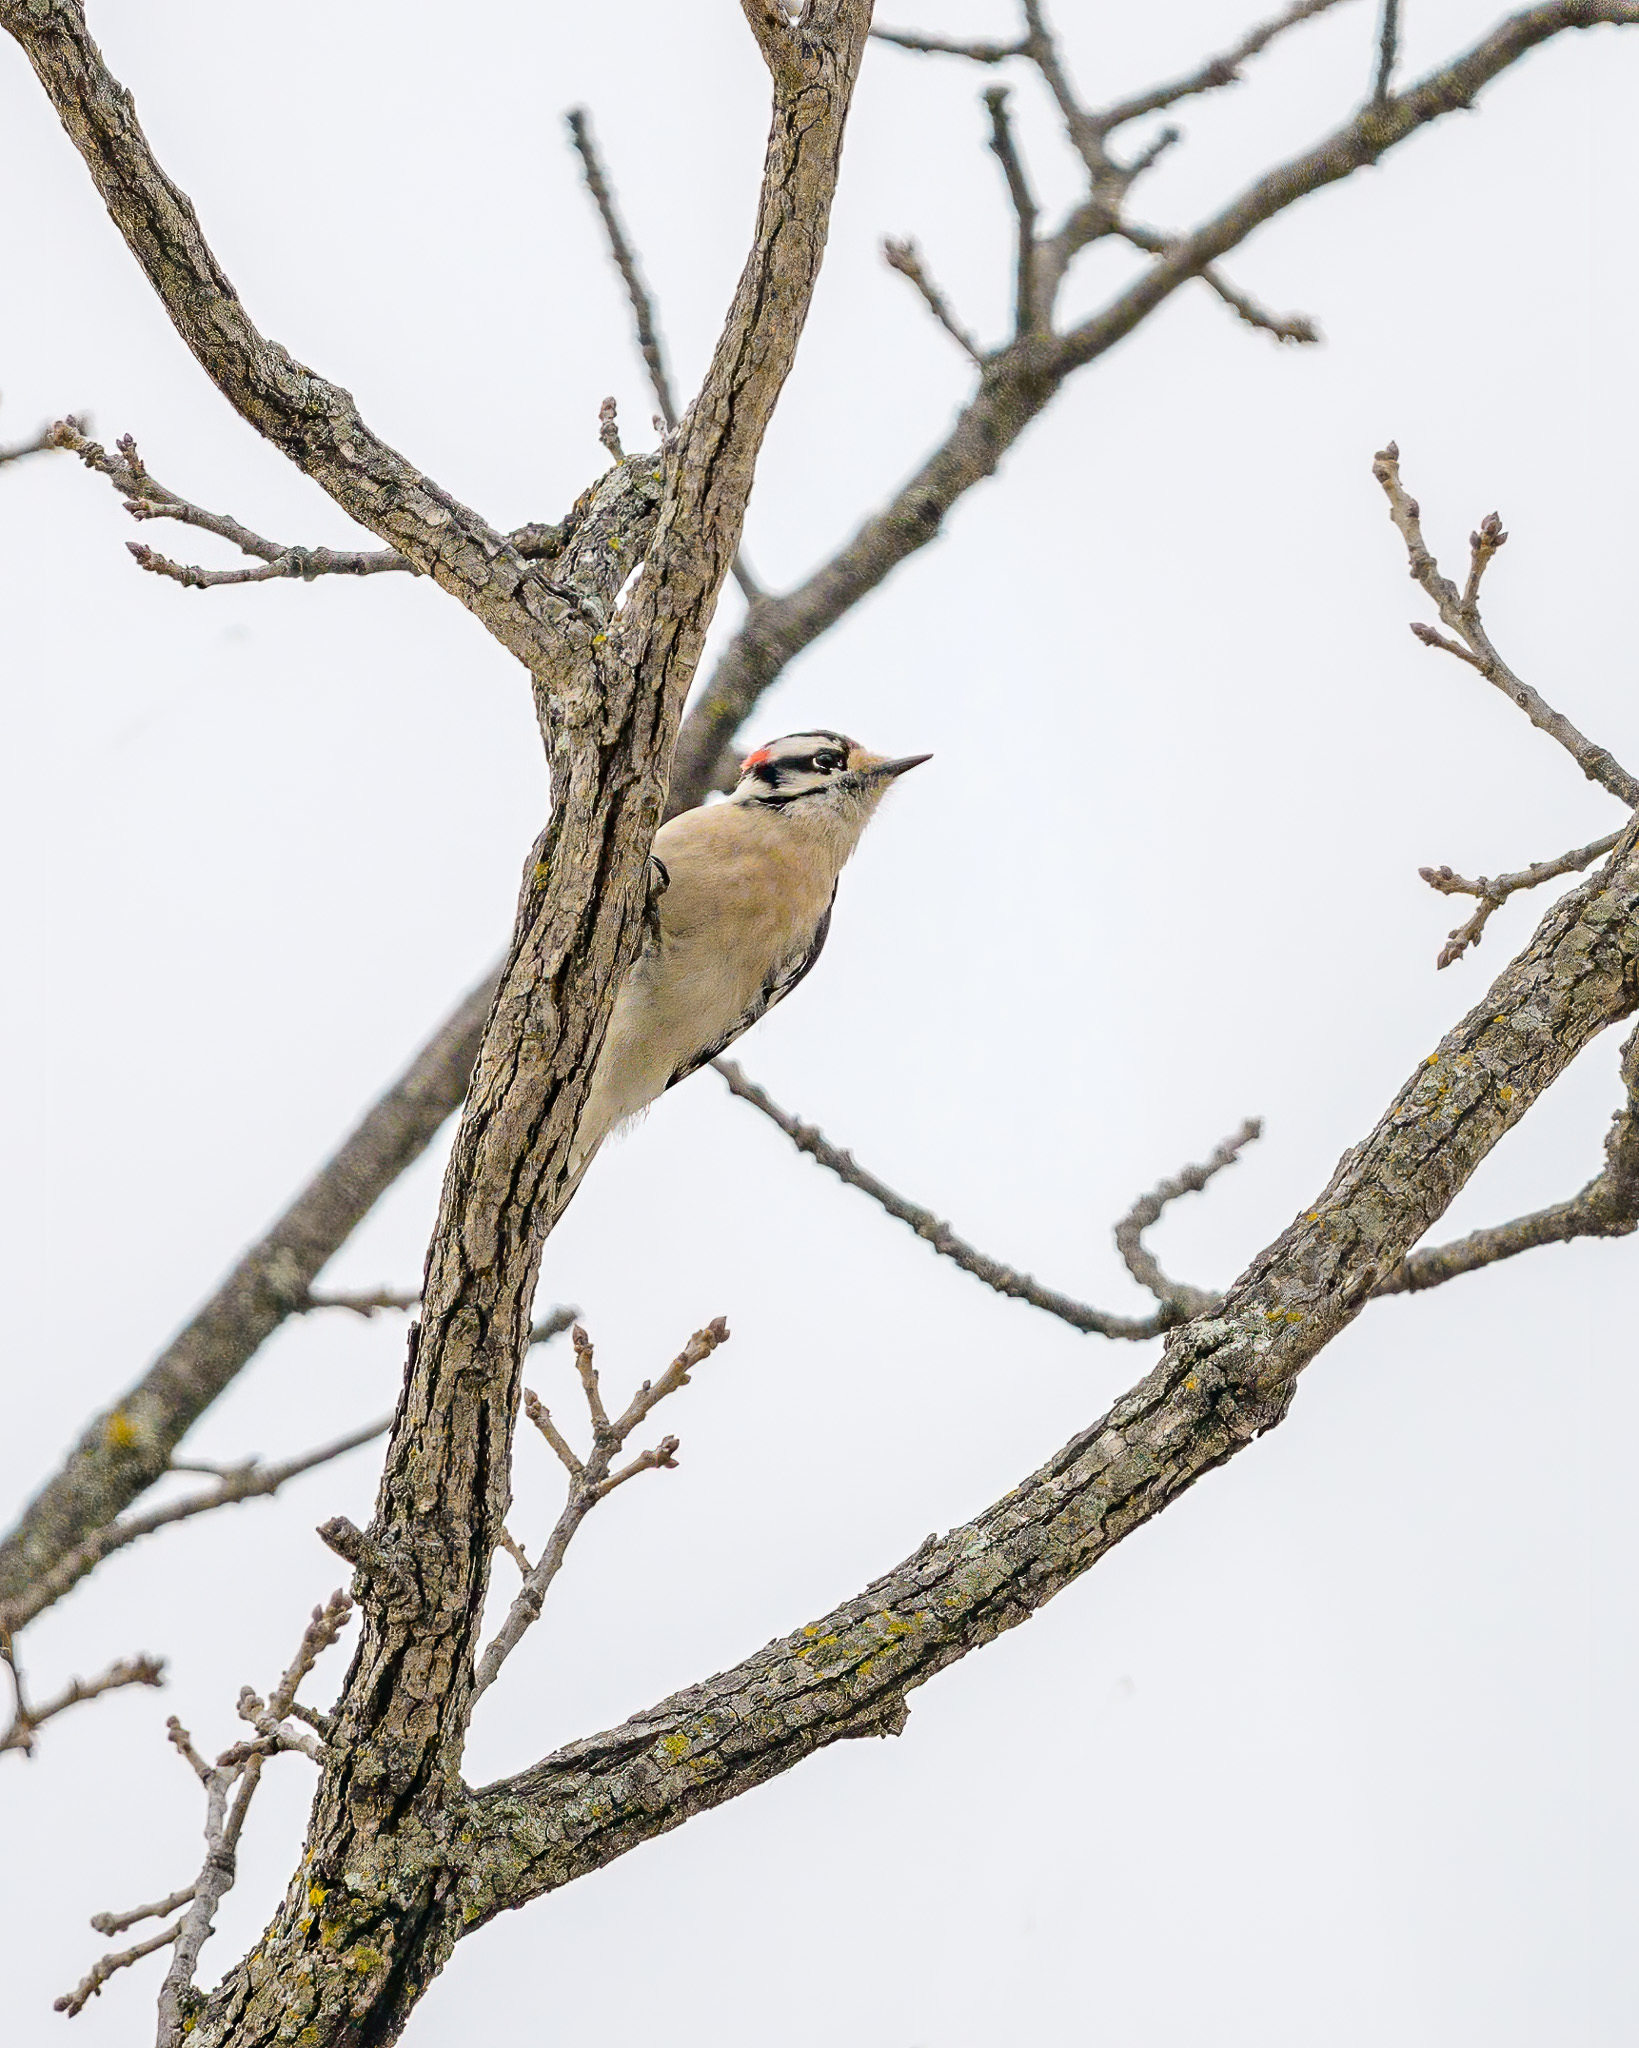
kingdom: Animalia
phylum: Chordata
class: Aves
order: Piciformes
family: Picidae
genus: Dryobates
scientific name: Dryobates pubescens
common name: Downy woodpecker
